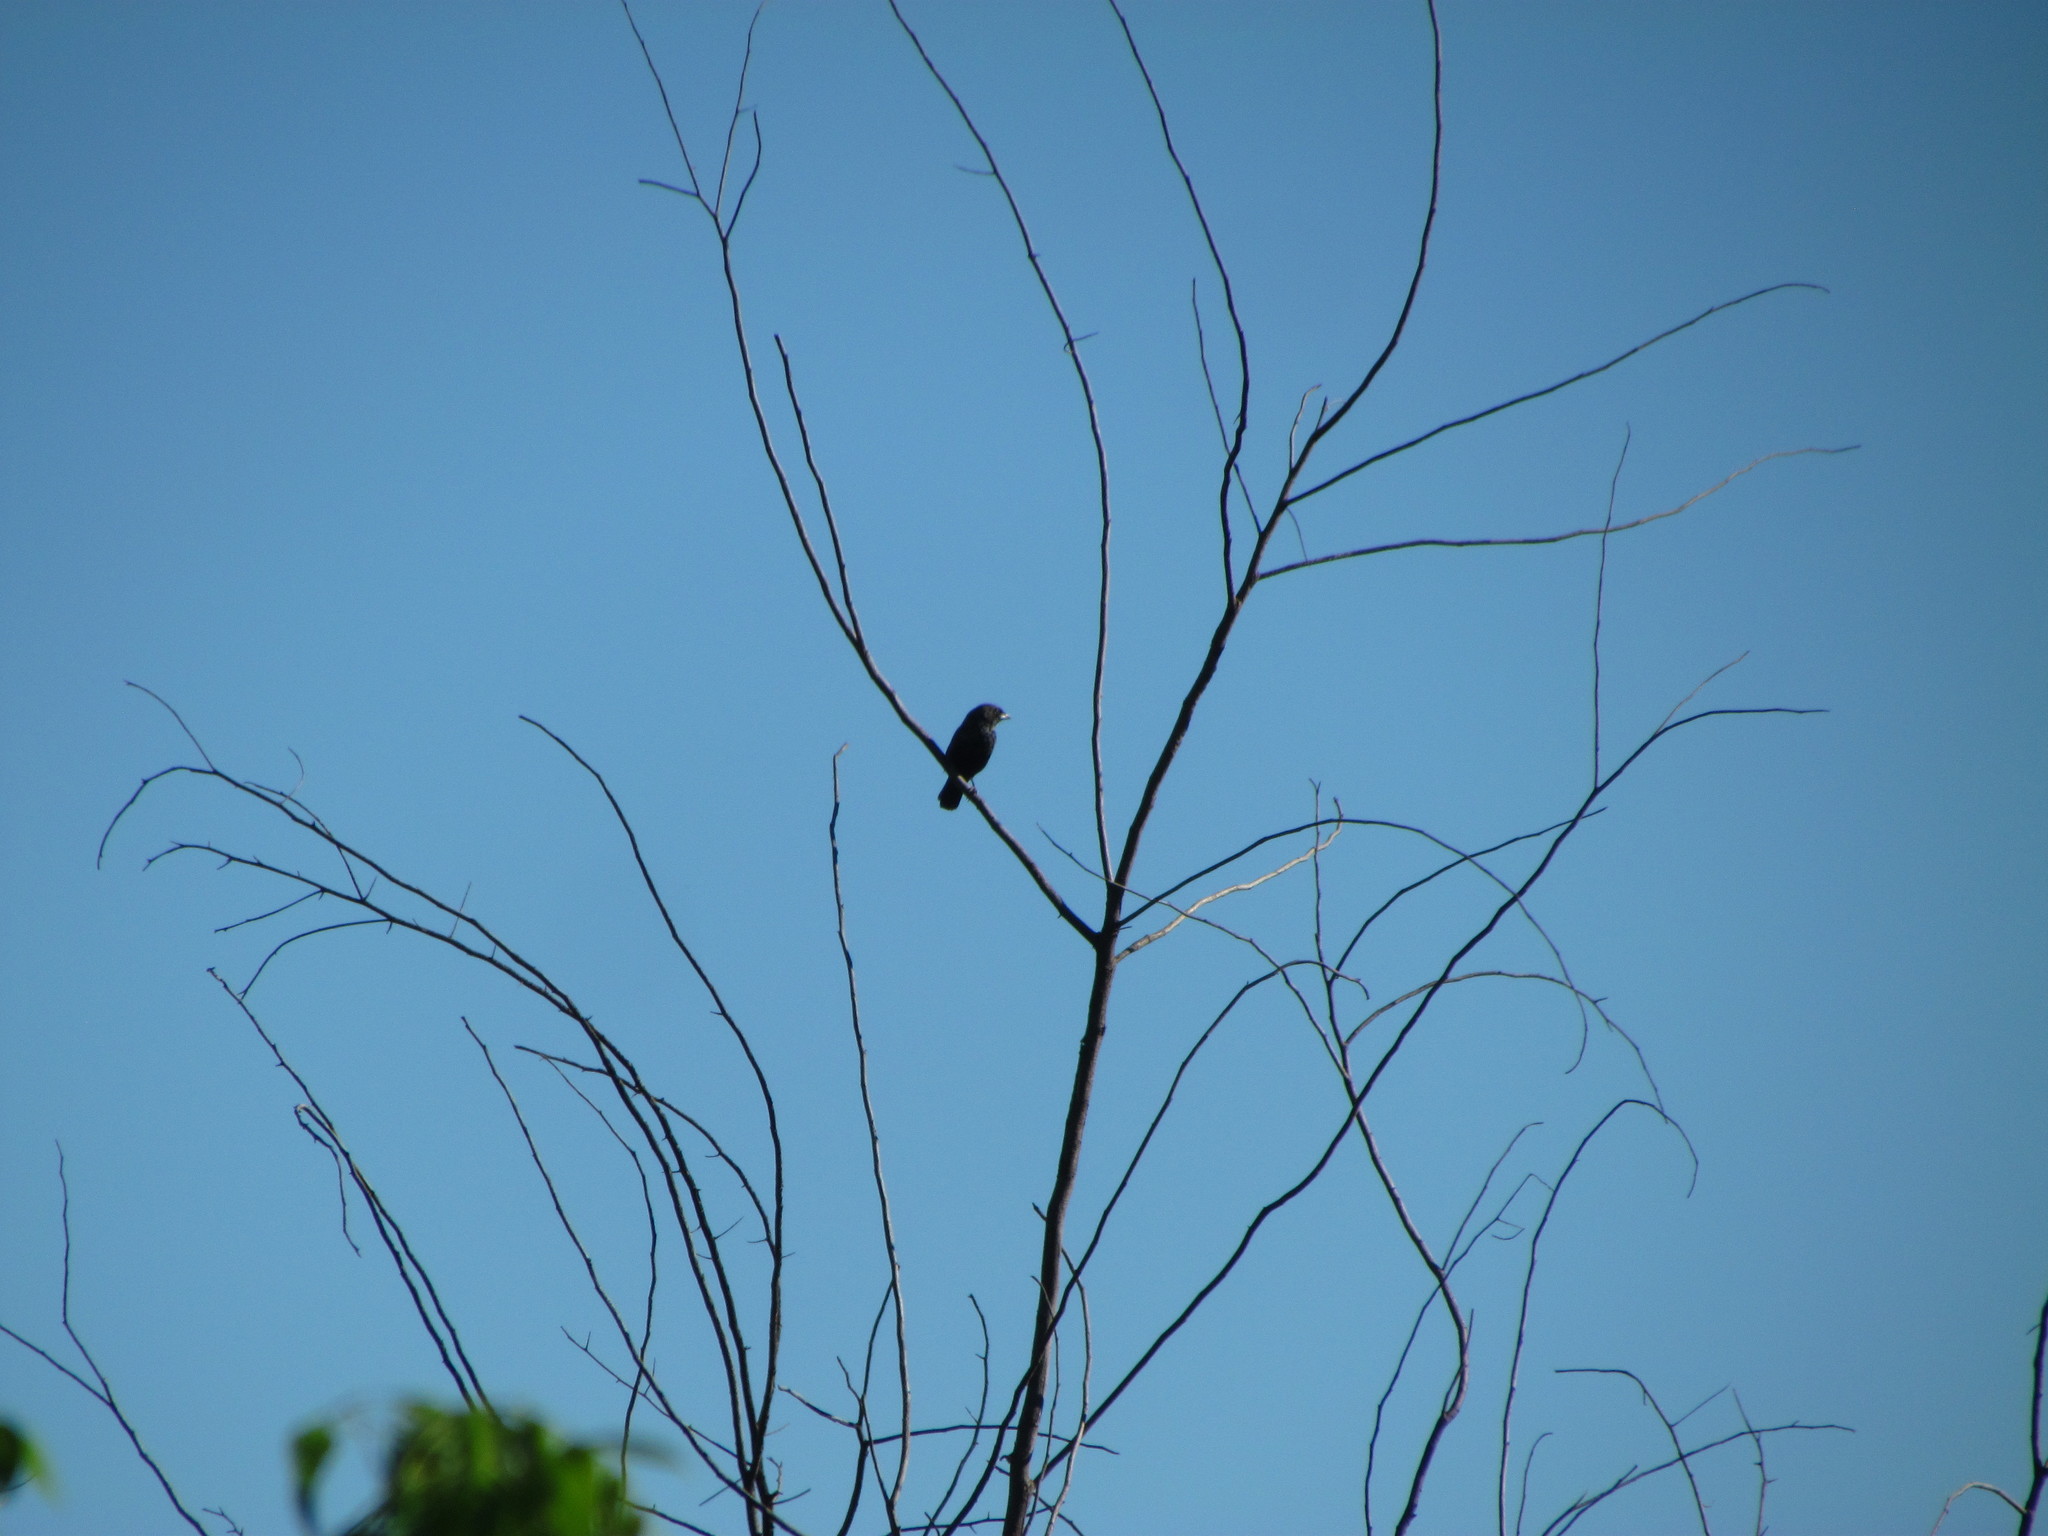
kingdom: Animalia
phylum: Chordata
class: Aves
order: Passeriformes
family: Thraupidae
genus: Volatinia
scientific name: Volatinia jacarina
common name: Blue-black grassquit
